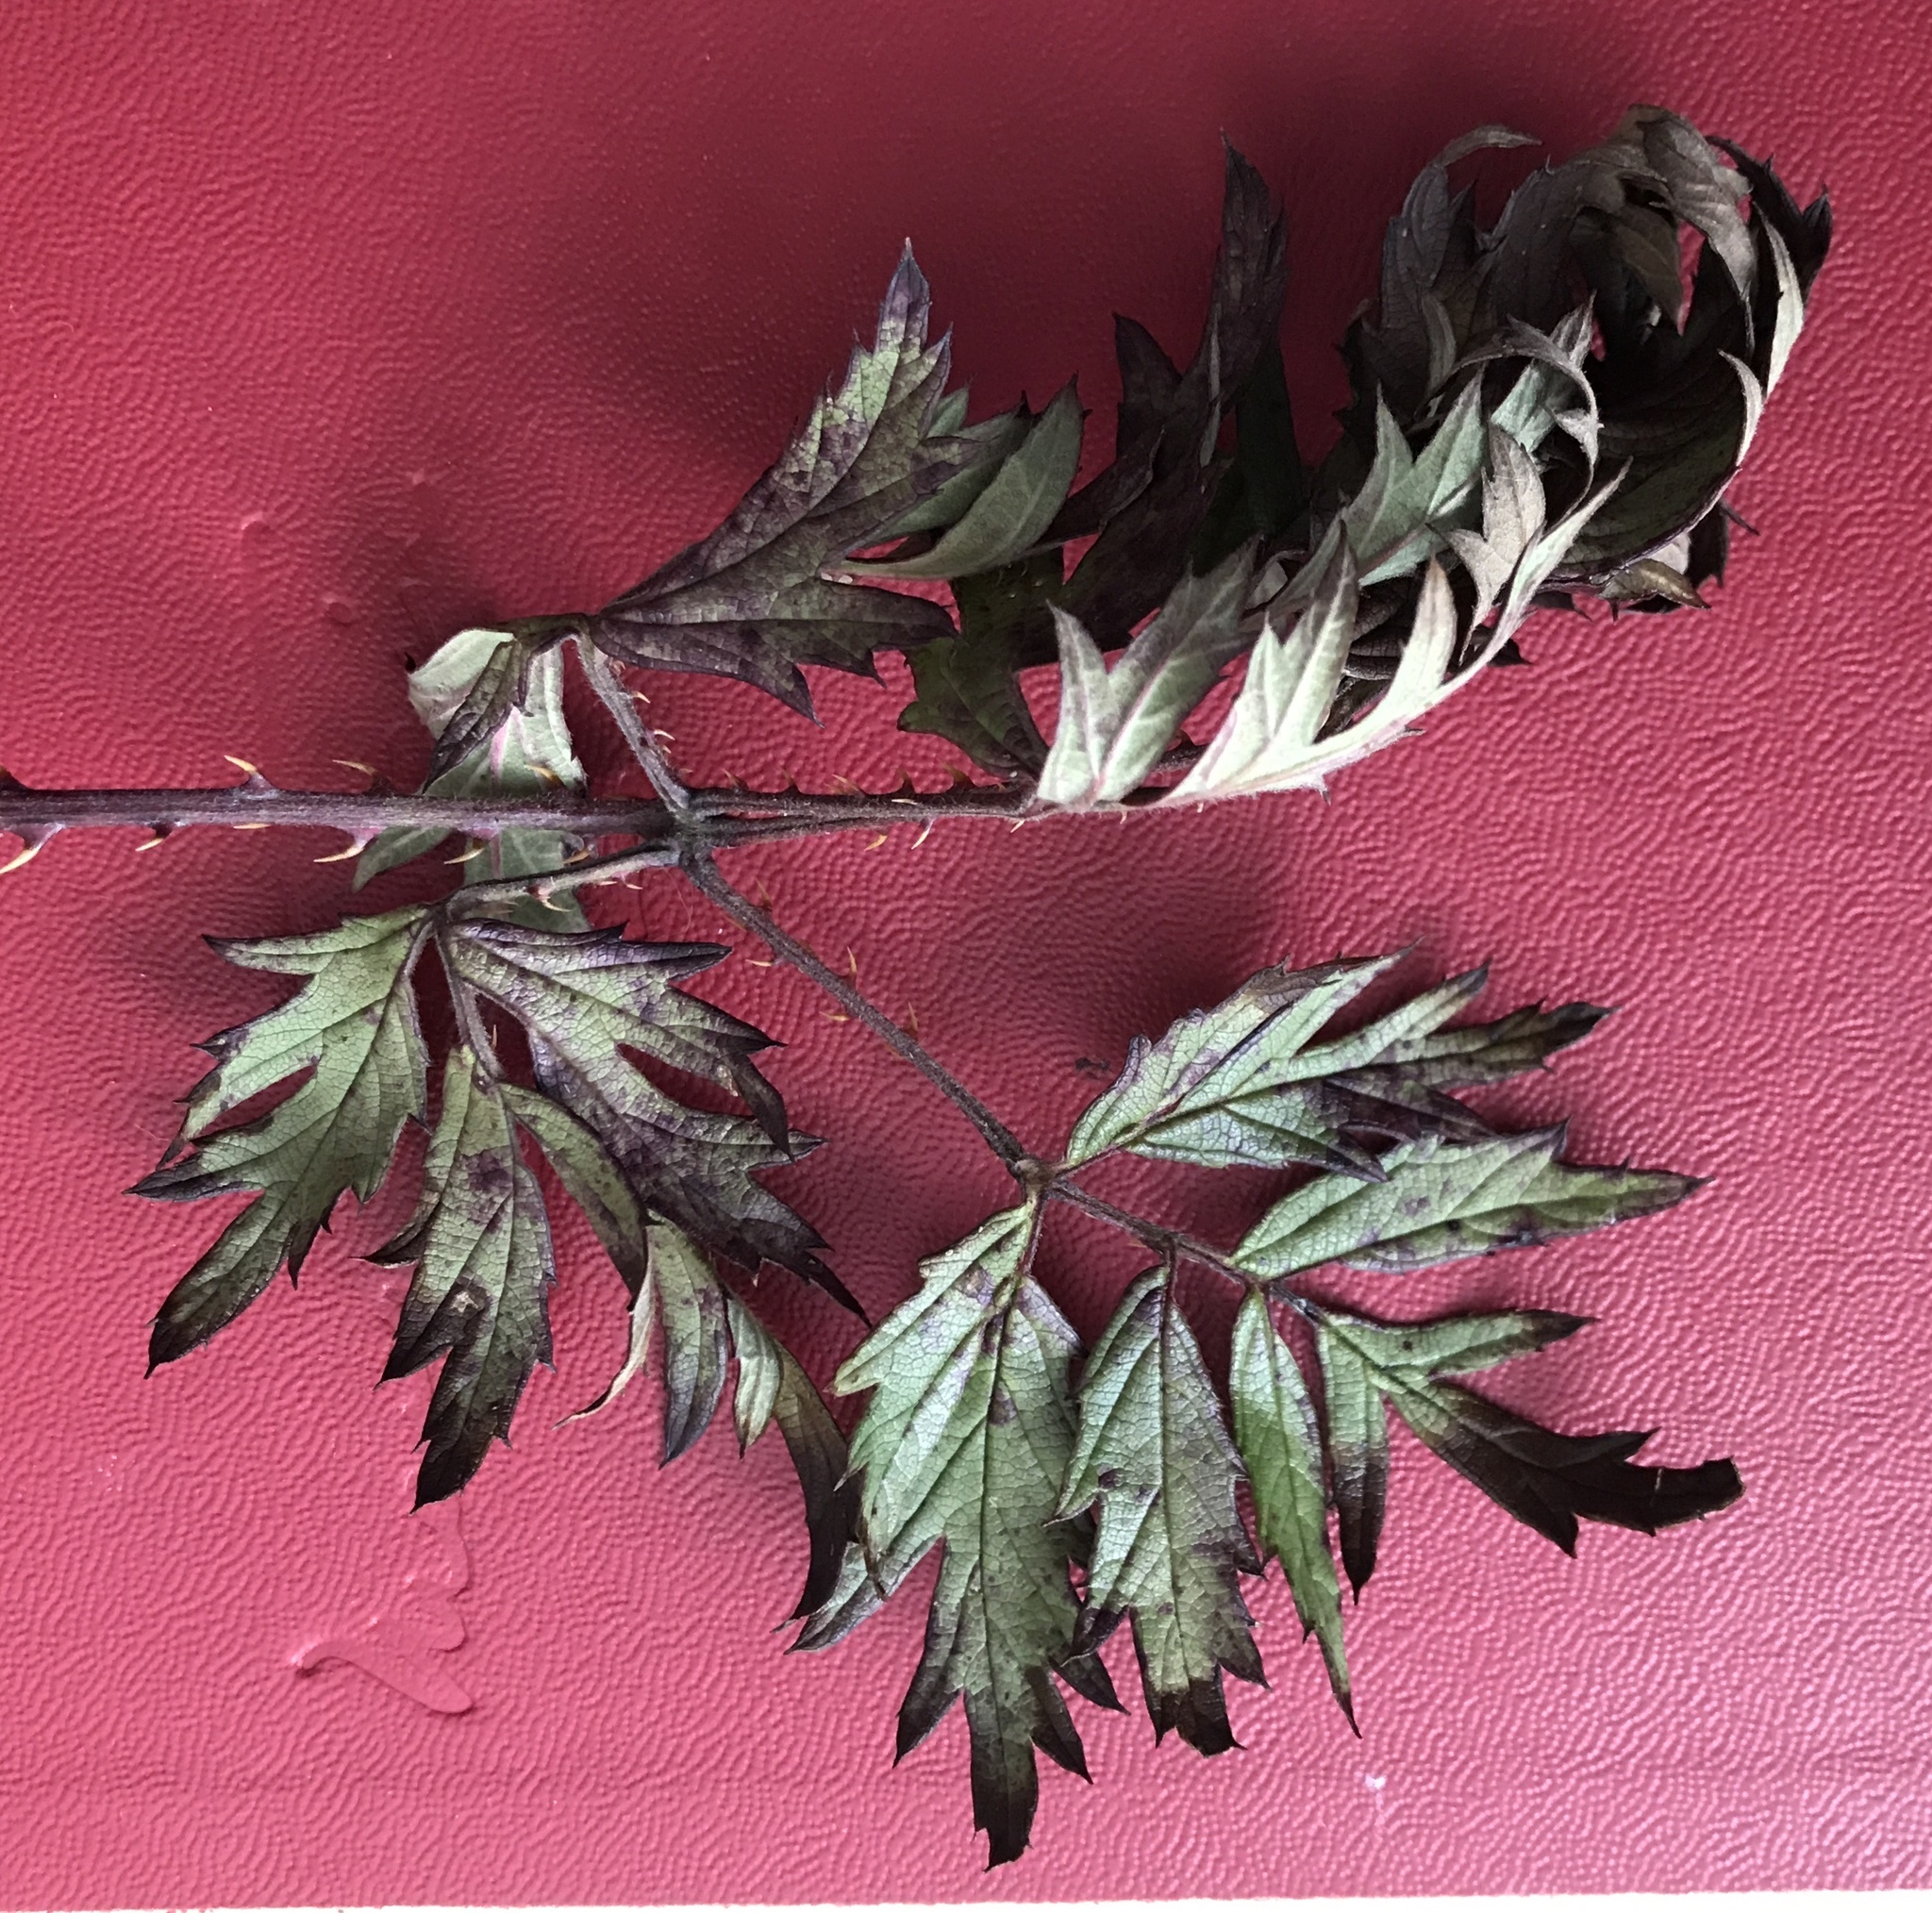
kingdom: Plantae
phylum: Tracheophyta
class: Magnoliopsida
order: Rosales
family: Rosaceae
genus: Rubus
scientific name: Rubus laciniatus
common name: Evergreen blackberry
